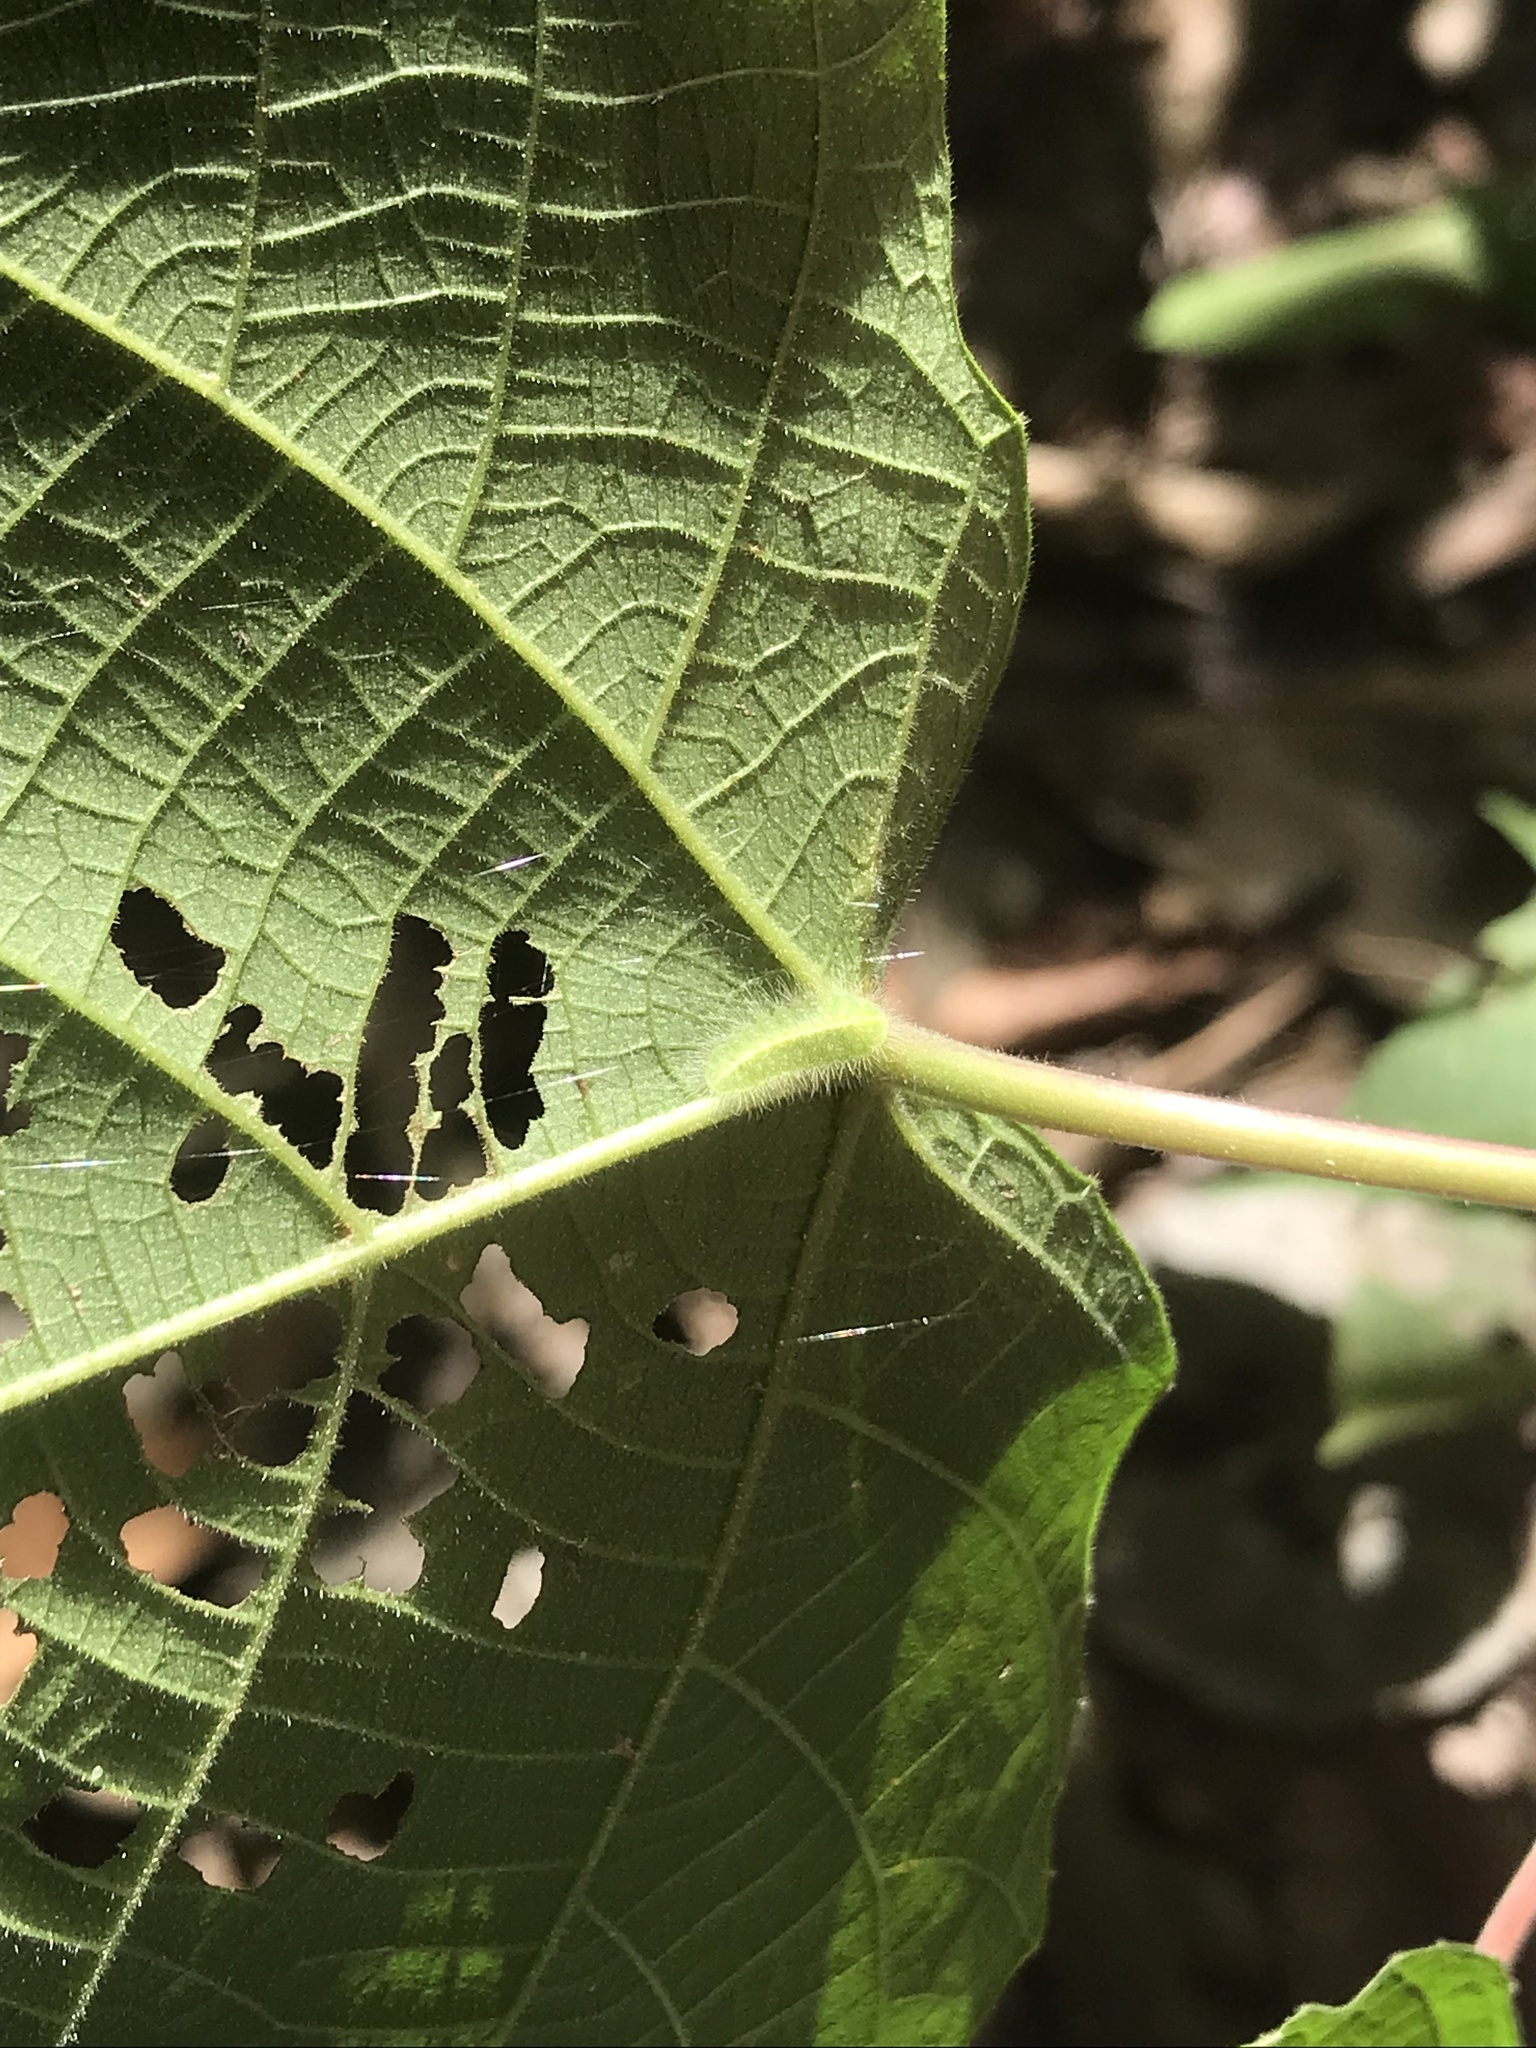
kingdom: Animalia
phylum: Arthropoda
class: Insecta
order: Lepidoptera
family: Lycaenidae
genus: Philiris
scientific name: Philiris nitens
